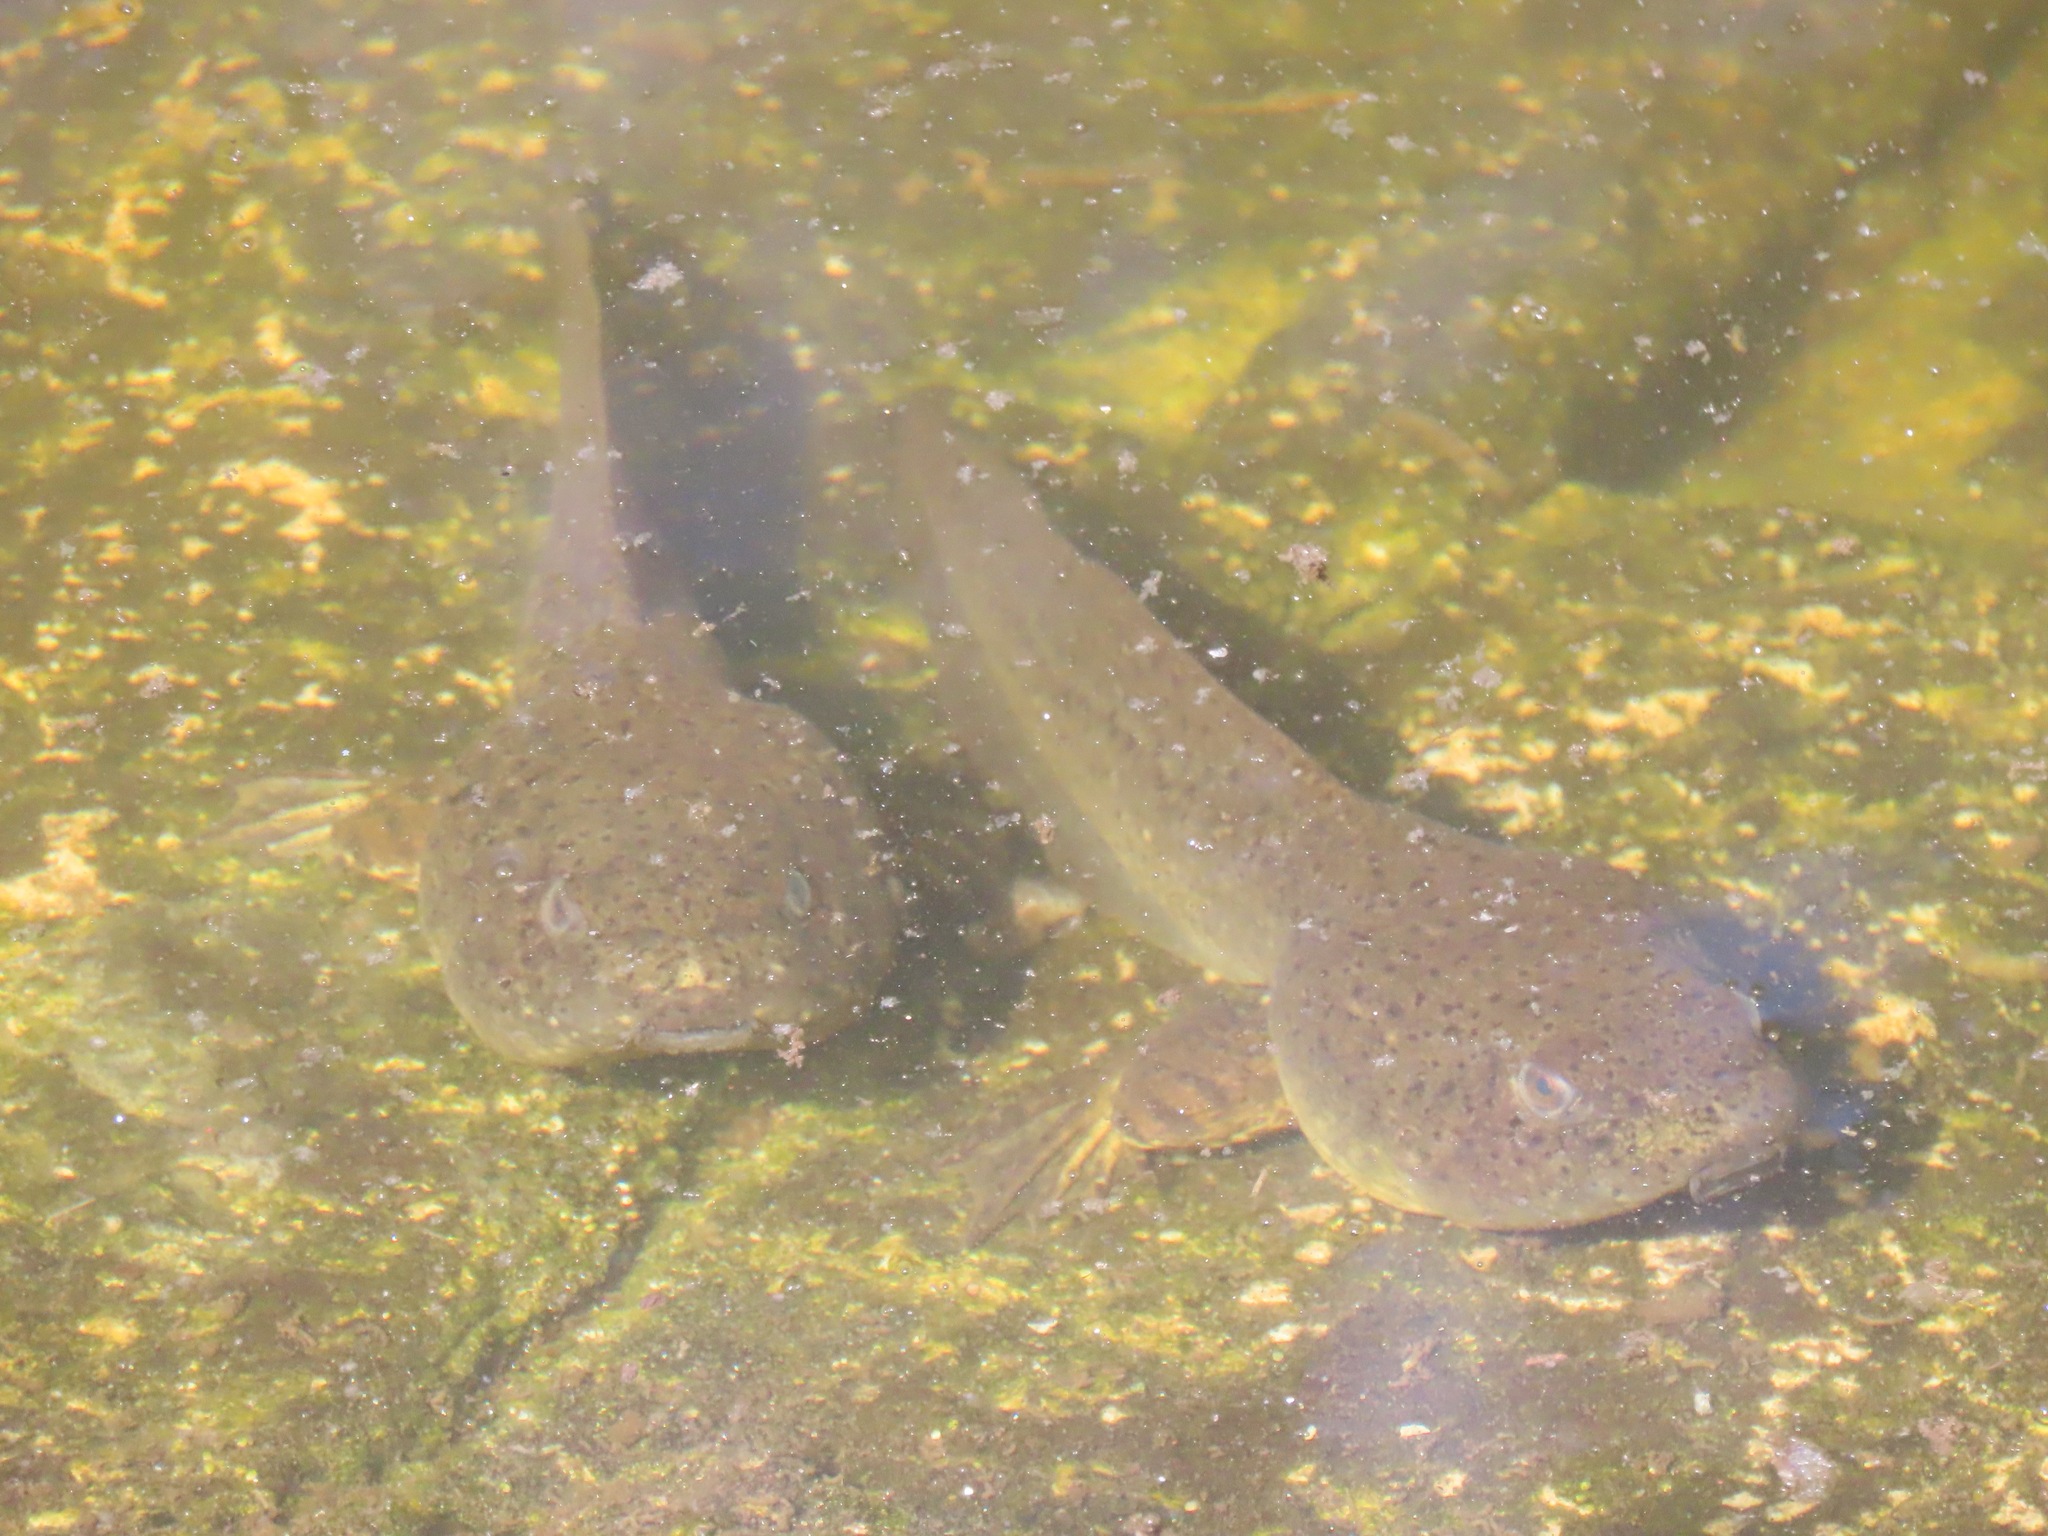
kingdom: Animalia
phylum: Chordata
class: Amphibia
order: Anura
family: Ranidae
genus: Lithobates
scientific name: Lithobates catesbeianus
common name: American bullfrog
